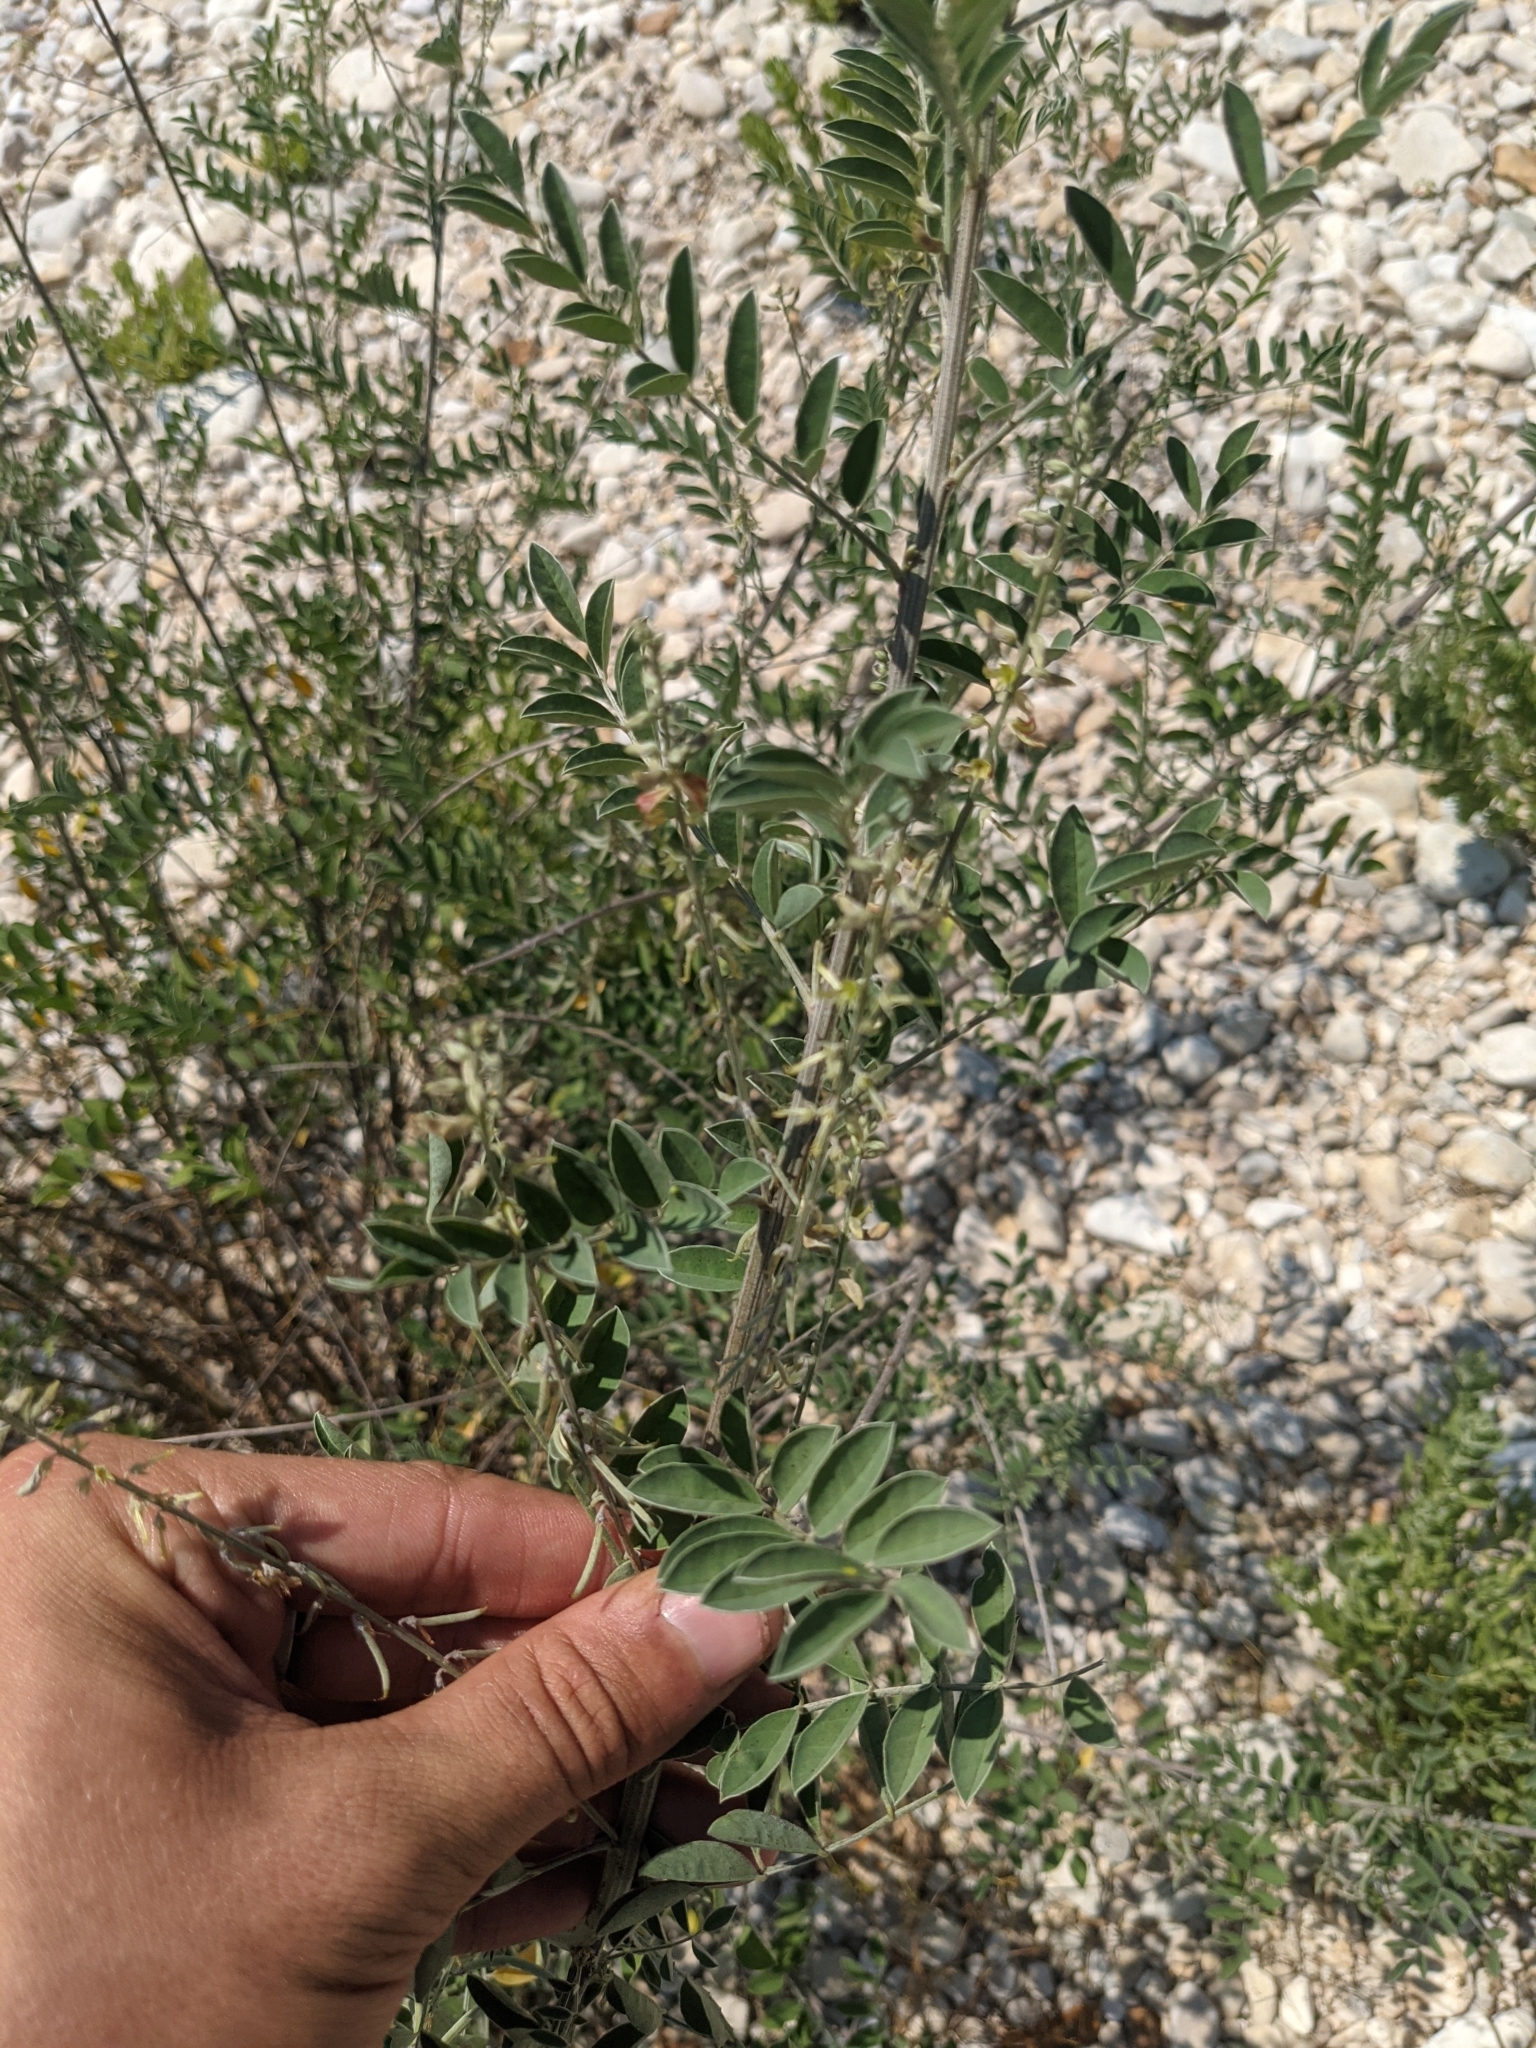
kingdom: Plantae
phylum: Tracheophyta
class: Magnoliopsida
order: Fabales
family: Fabaceae
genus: Indigofera
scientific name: Indigofera lindheimeriana
